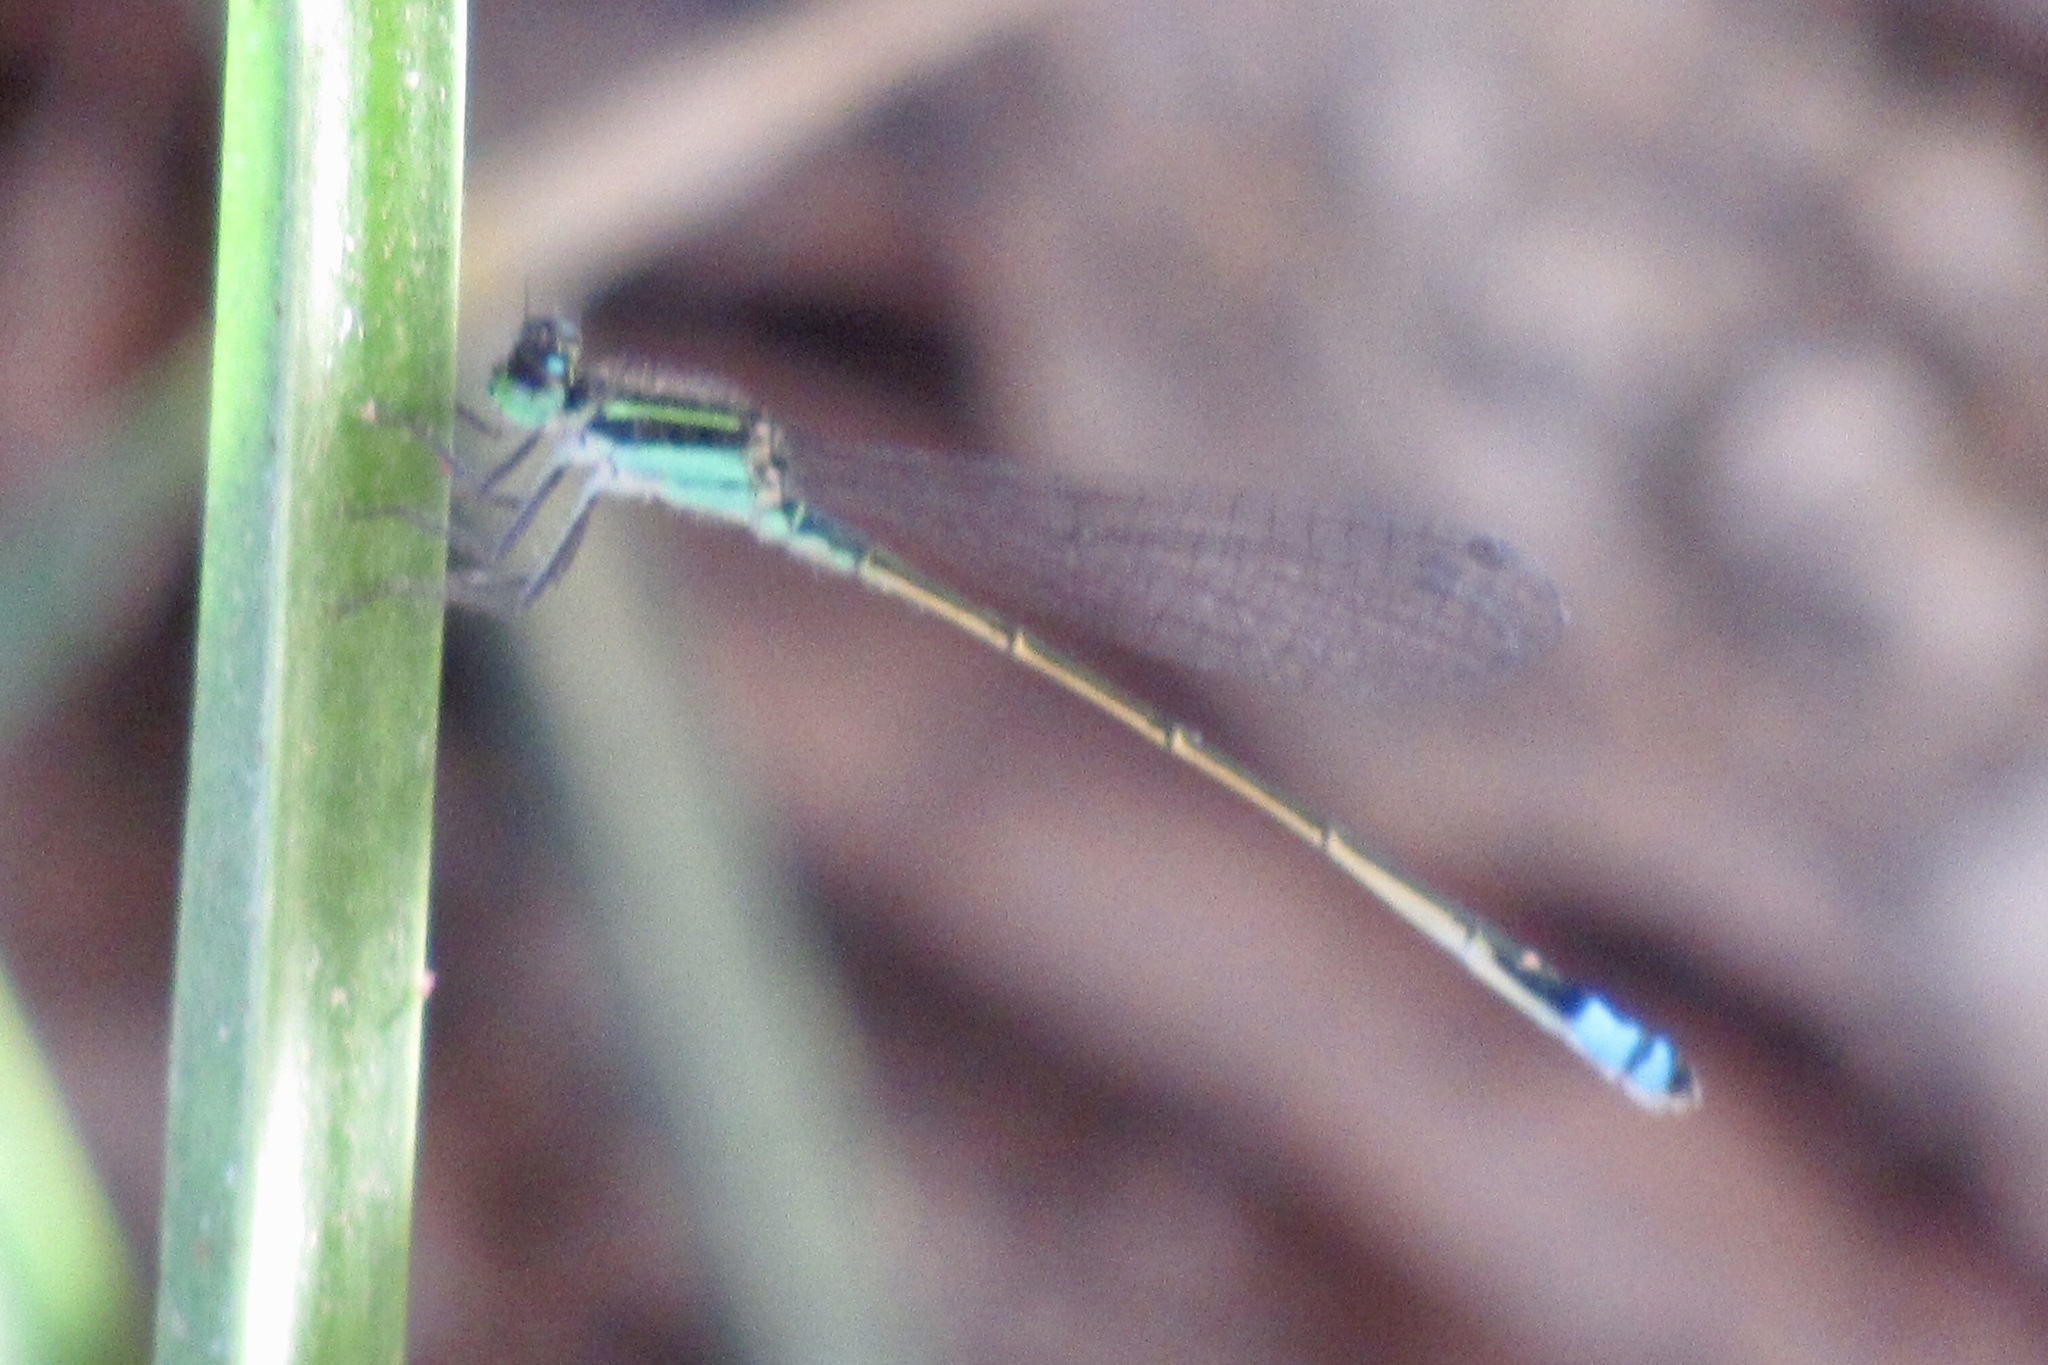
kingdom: Animalia
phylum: Arthropoda
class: Insecta
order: Odonata
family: Coenagrionidae
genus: Ischnura
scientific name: Ischnura ramburii
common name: Rambur's forktail
